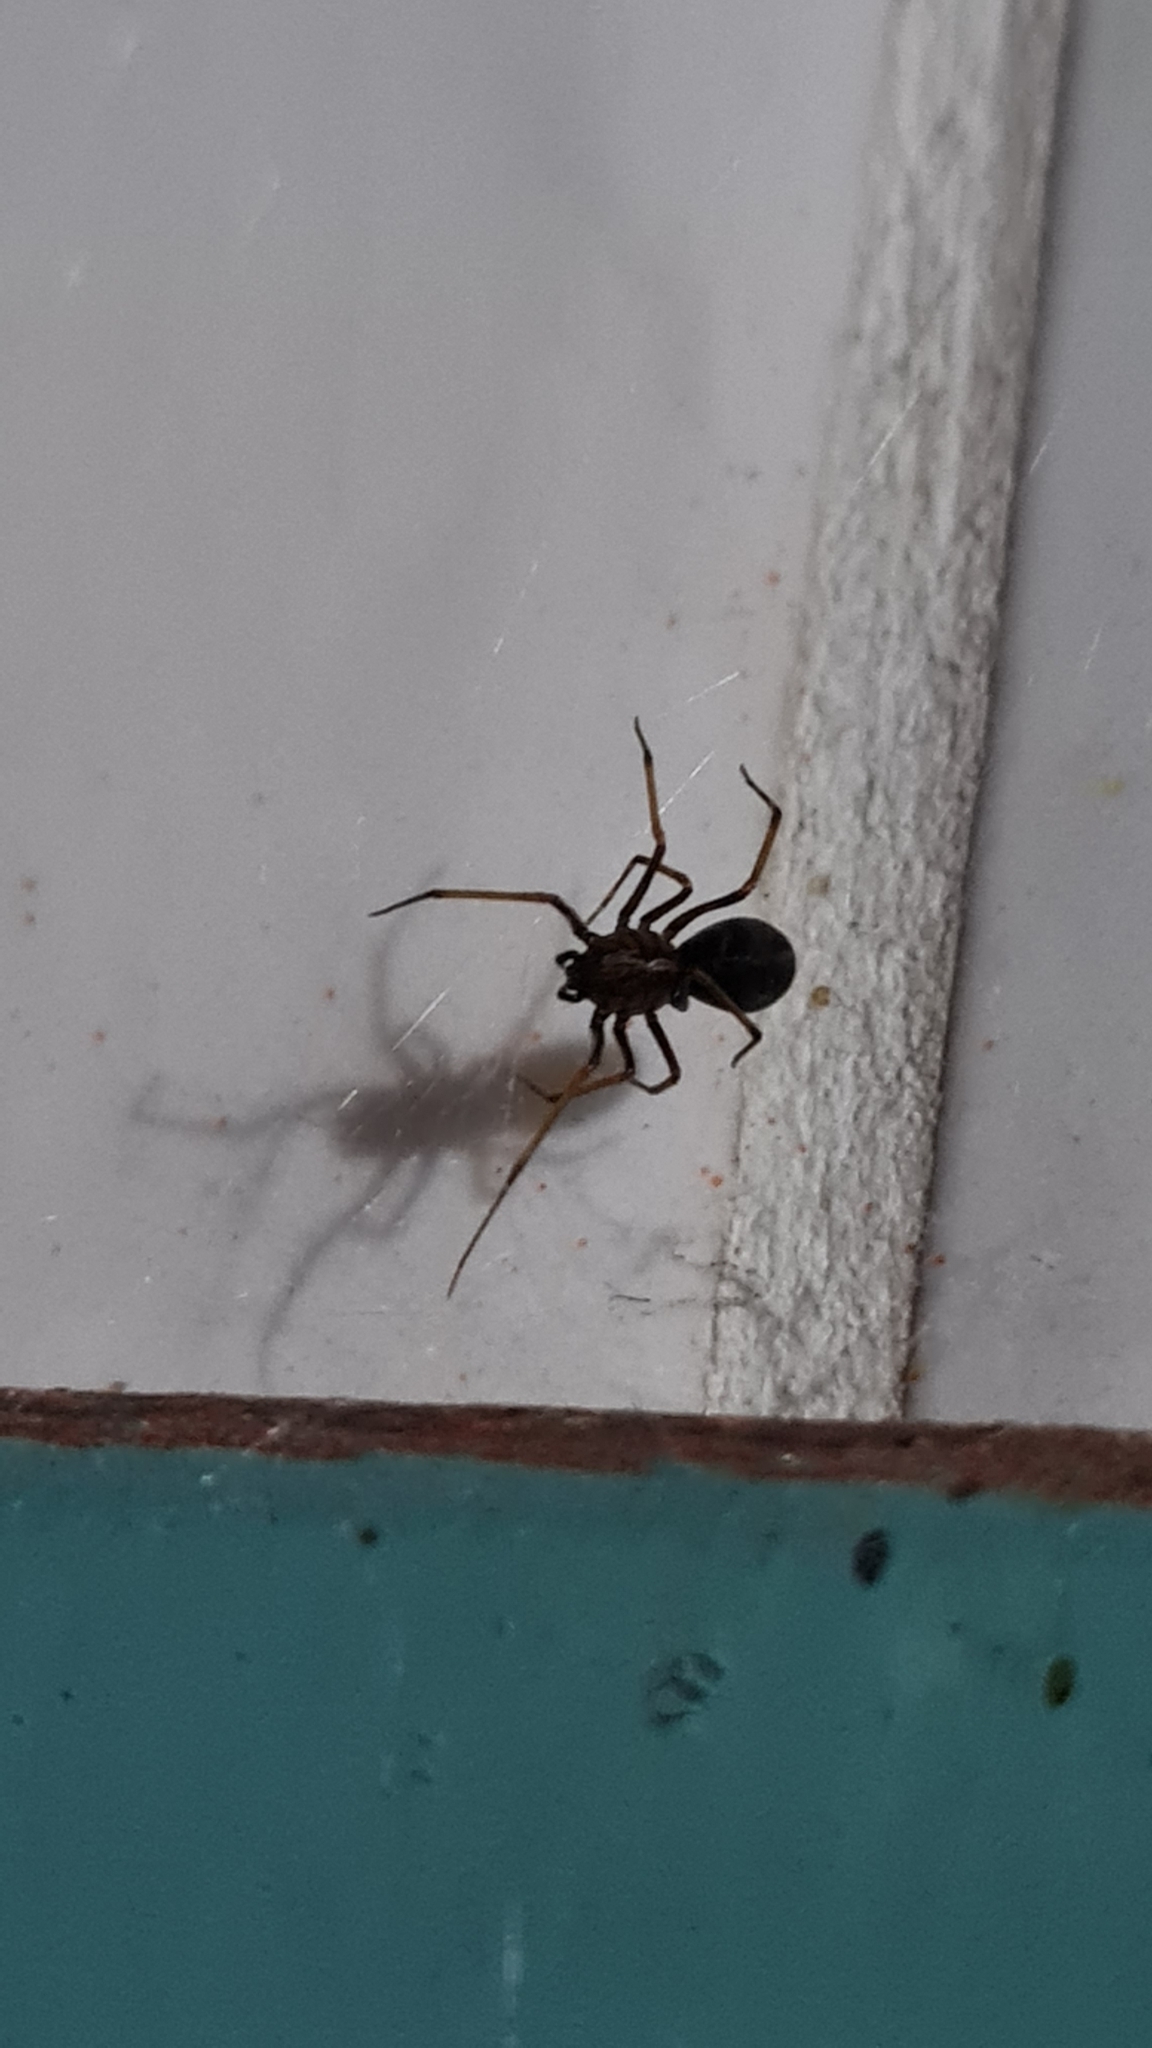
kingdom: Animalia
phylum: Arthropoda
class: Arachnida
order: Araneae
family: Scytodidae
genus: Scytodes
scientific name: Scytodes fusca
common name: Spitting spiders
